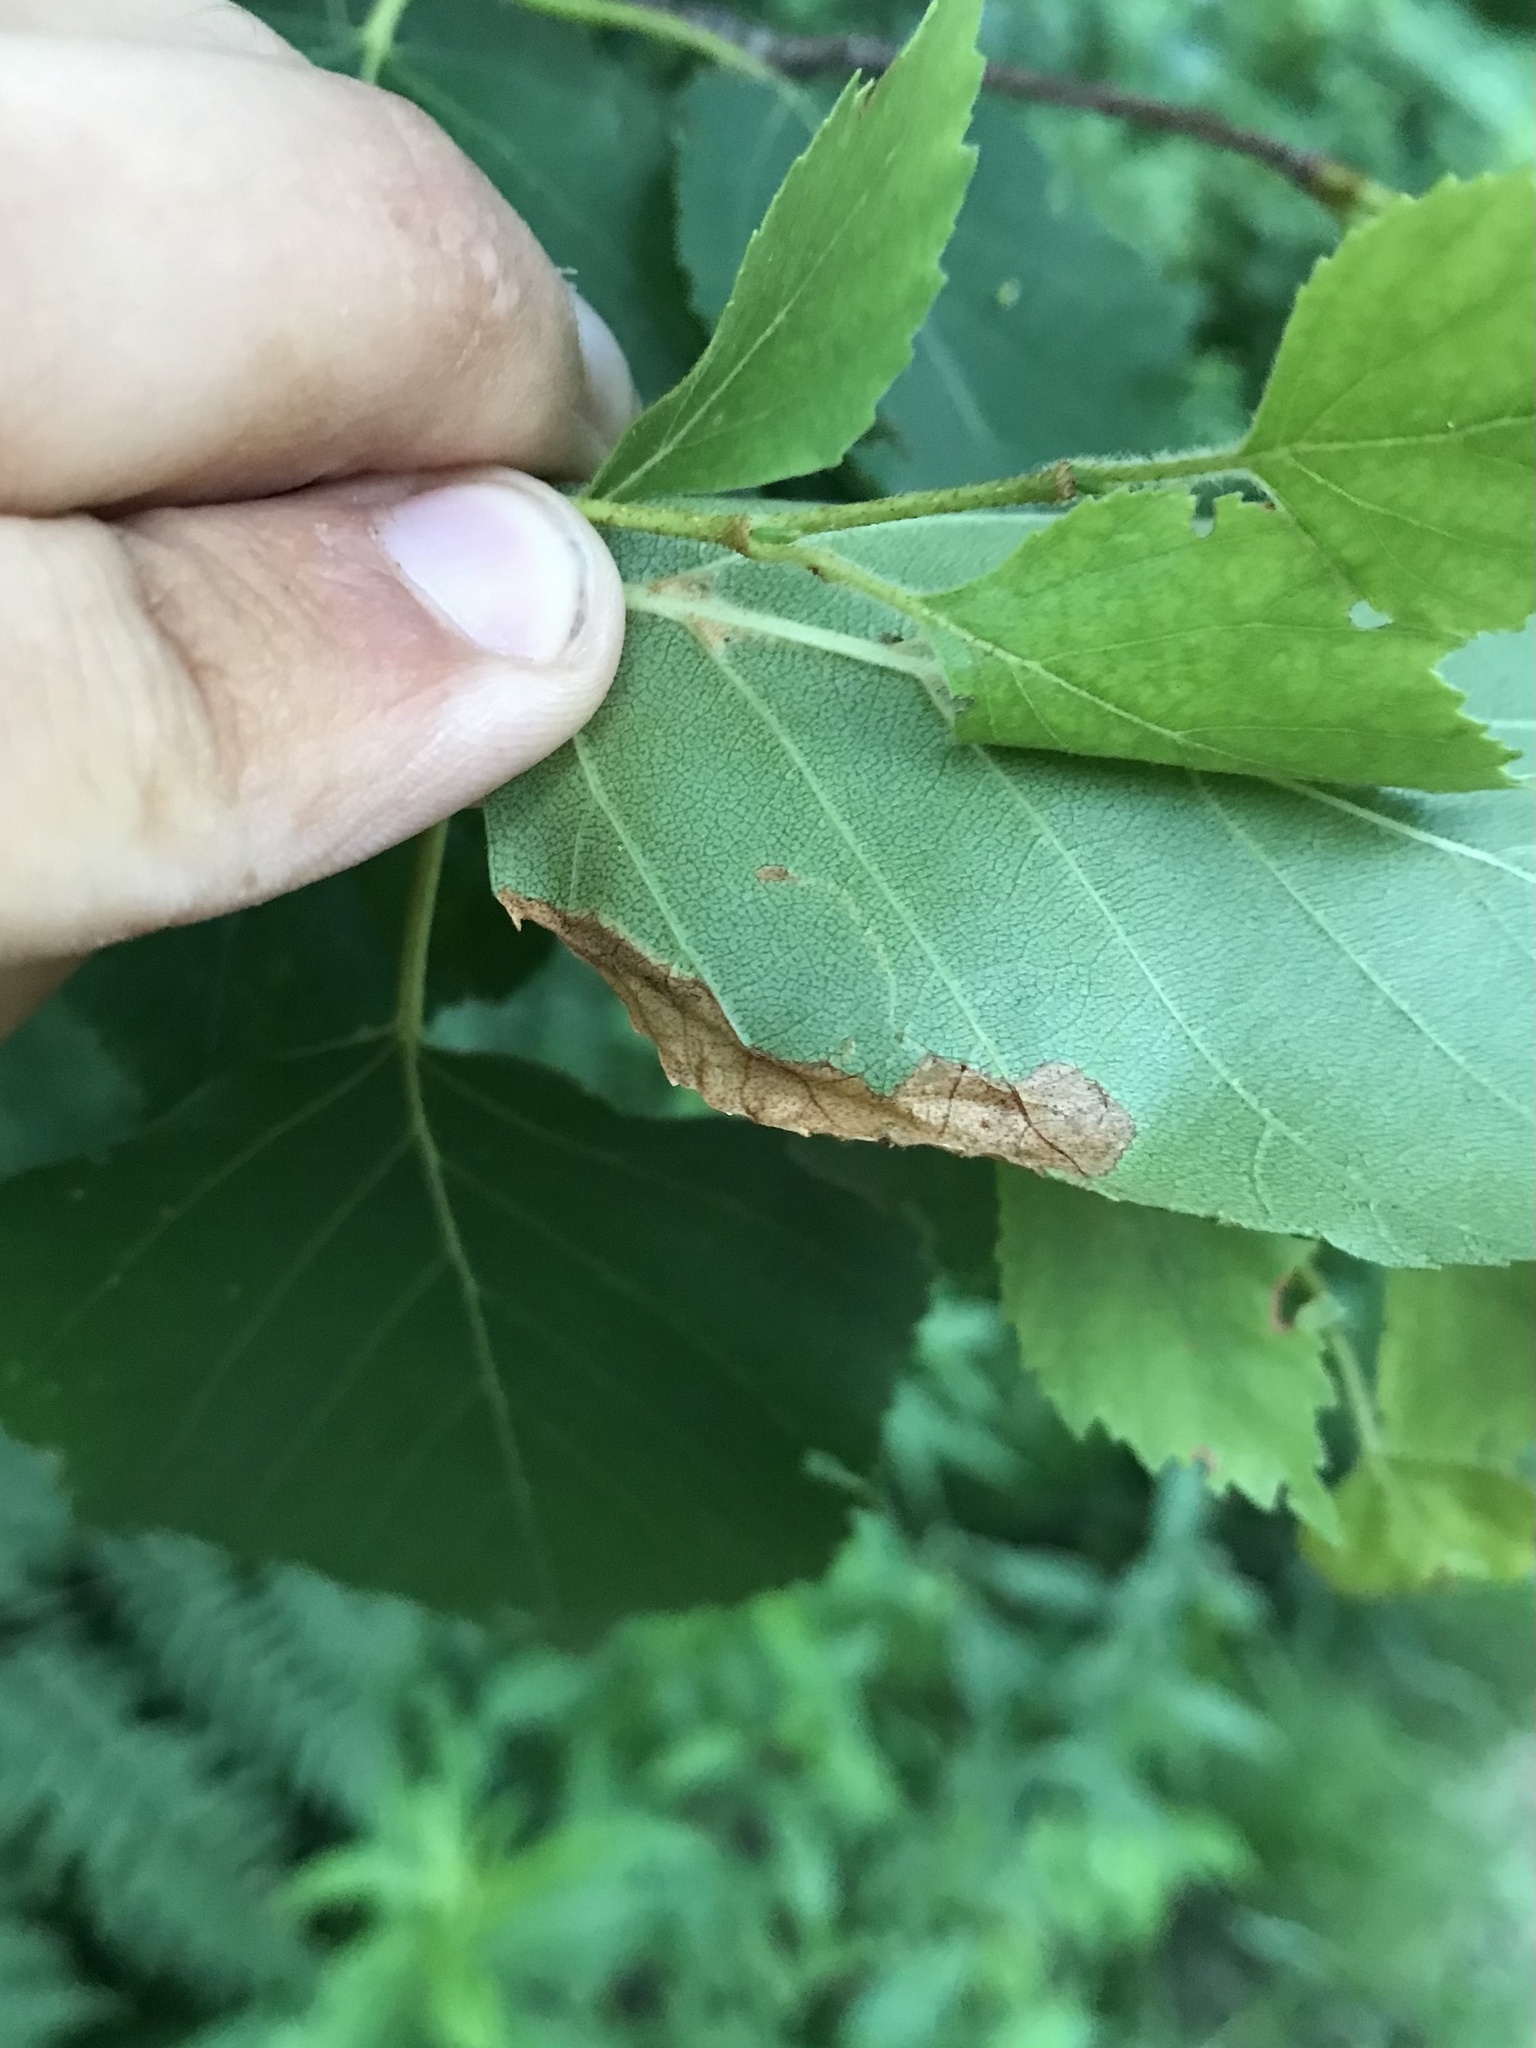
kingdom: Animalia
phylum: Arthropoda
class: Insecta
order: Lepidoptera
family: Lyonetiidae
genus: Lyonetia
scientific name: Lyonetia prunifoliella
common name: Striped bent-wing
